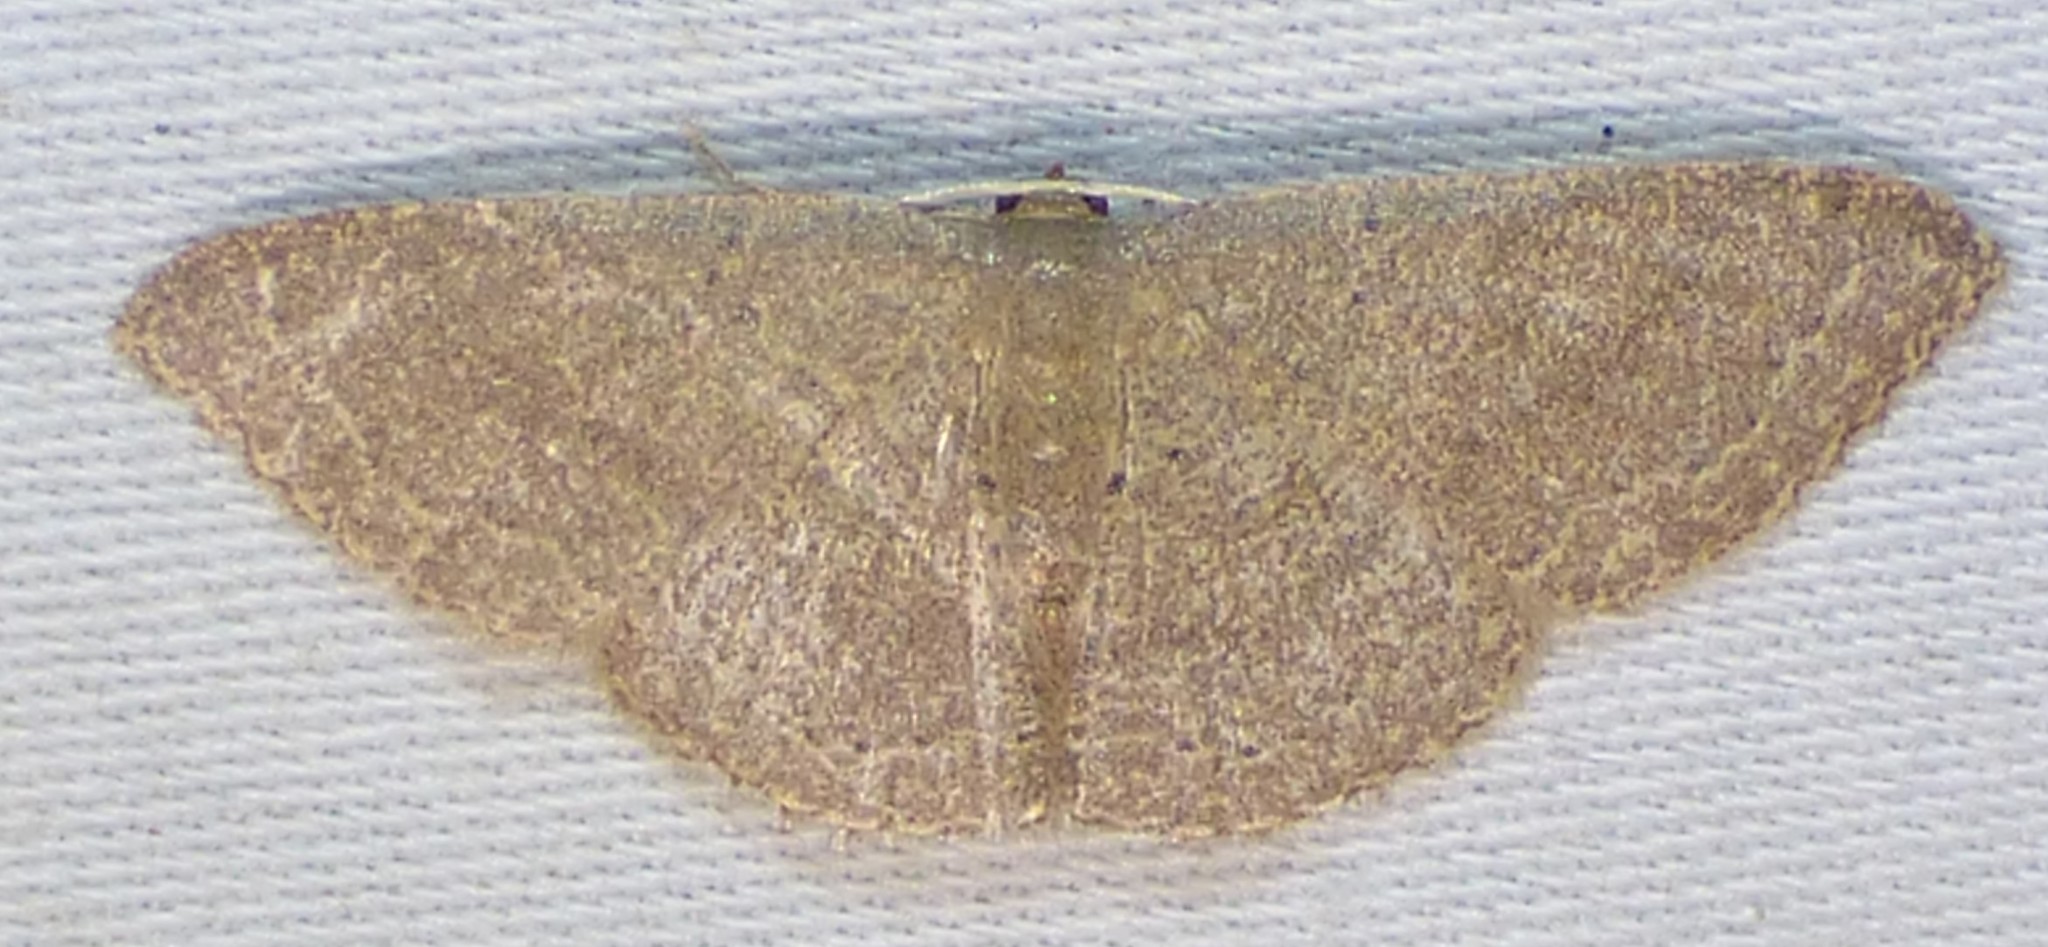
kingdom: Animalia
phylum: Arthropoda
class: Insecta
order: Lepidoptera
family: Geometridae
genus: Pleuroprucha
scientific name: Pleuroprucha insulsaria
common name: Common tan wave
